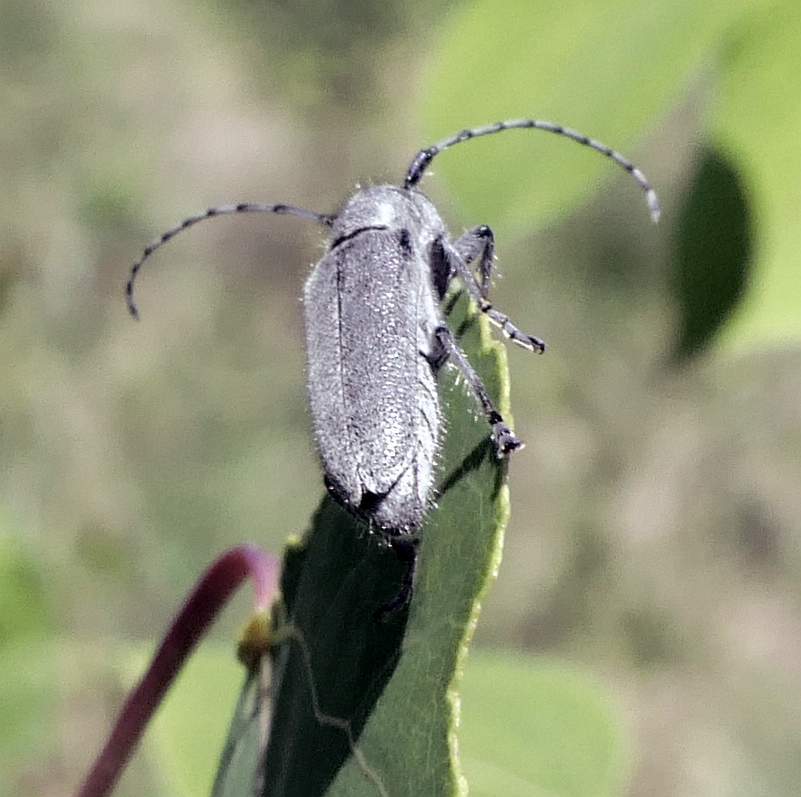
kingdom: Animalia
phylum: Arthropoda
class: Insecta
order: Coleoptera
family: Cerambycidae
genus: Saperda
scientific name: Saperda inornata
